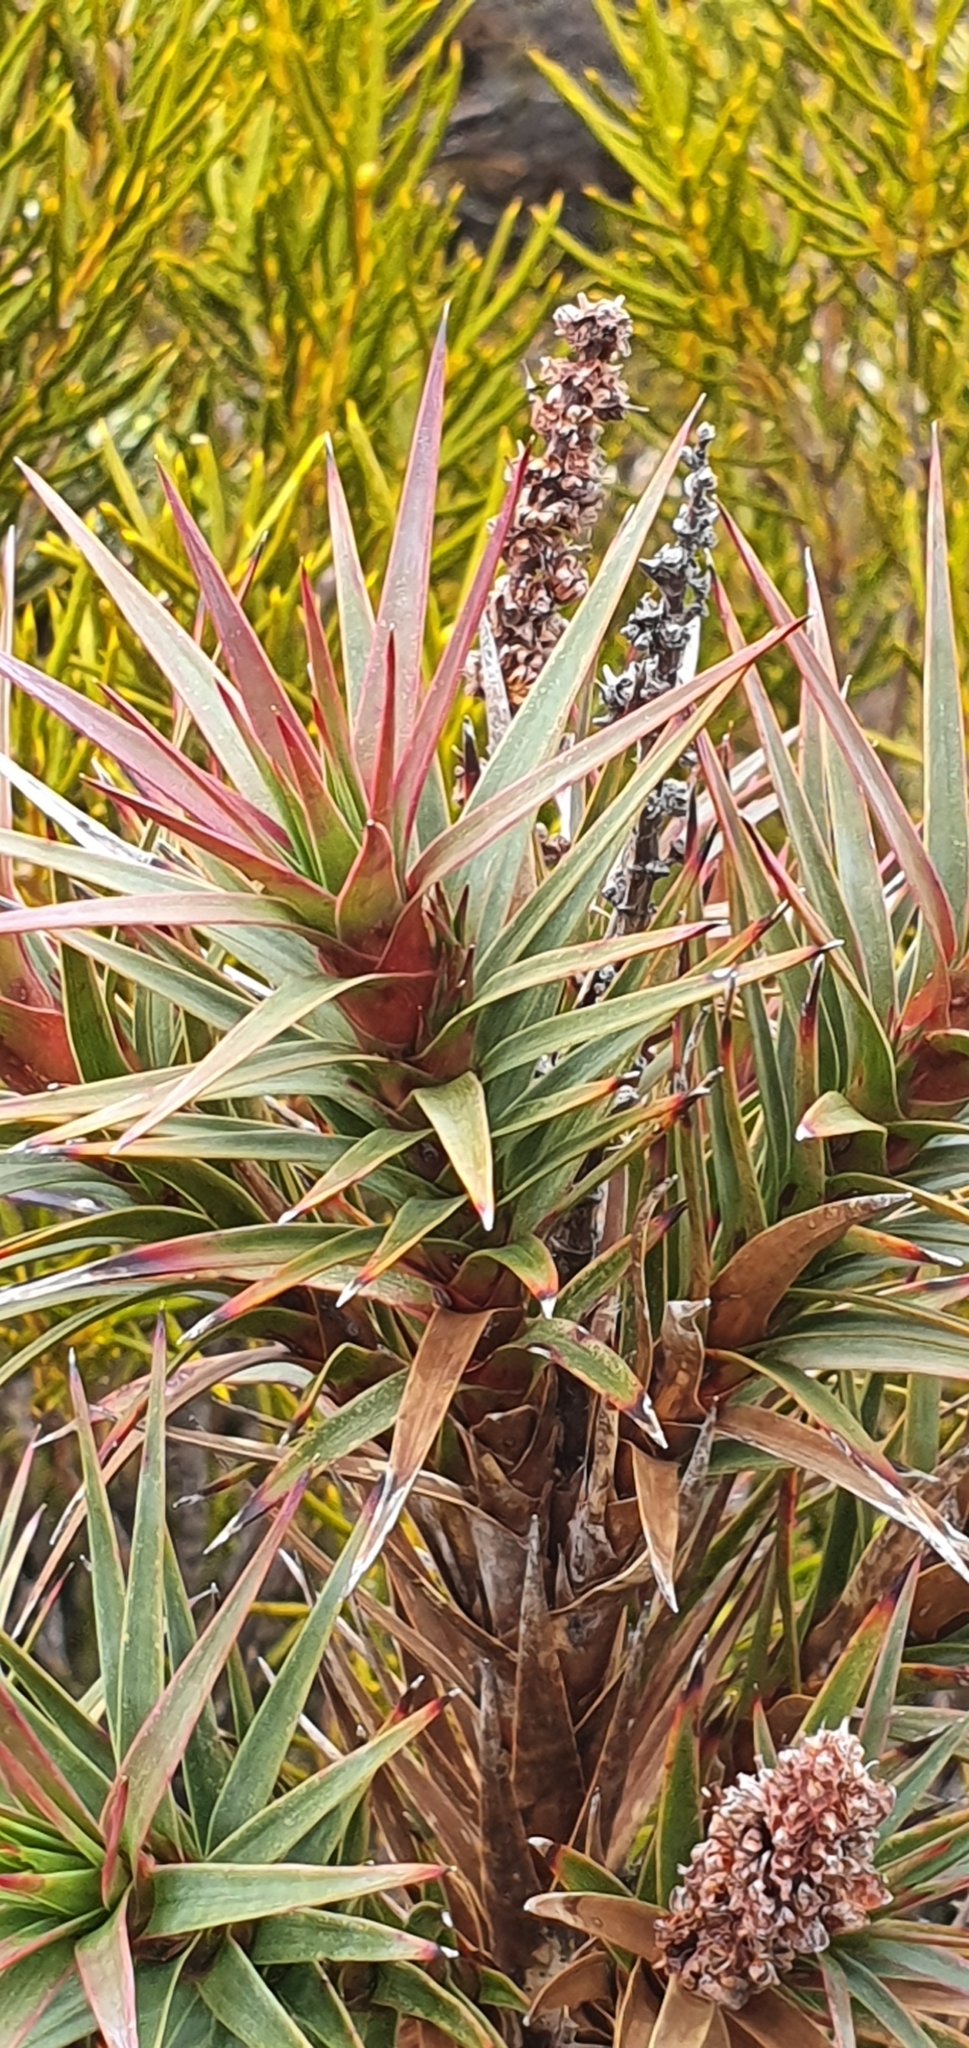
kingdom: Plantae
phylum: Tracheophyta
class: Magnoliopsida
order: Ericales
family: Ericaceae
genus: Dracophyllum
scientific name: Dracophyllum persistentifolium
